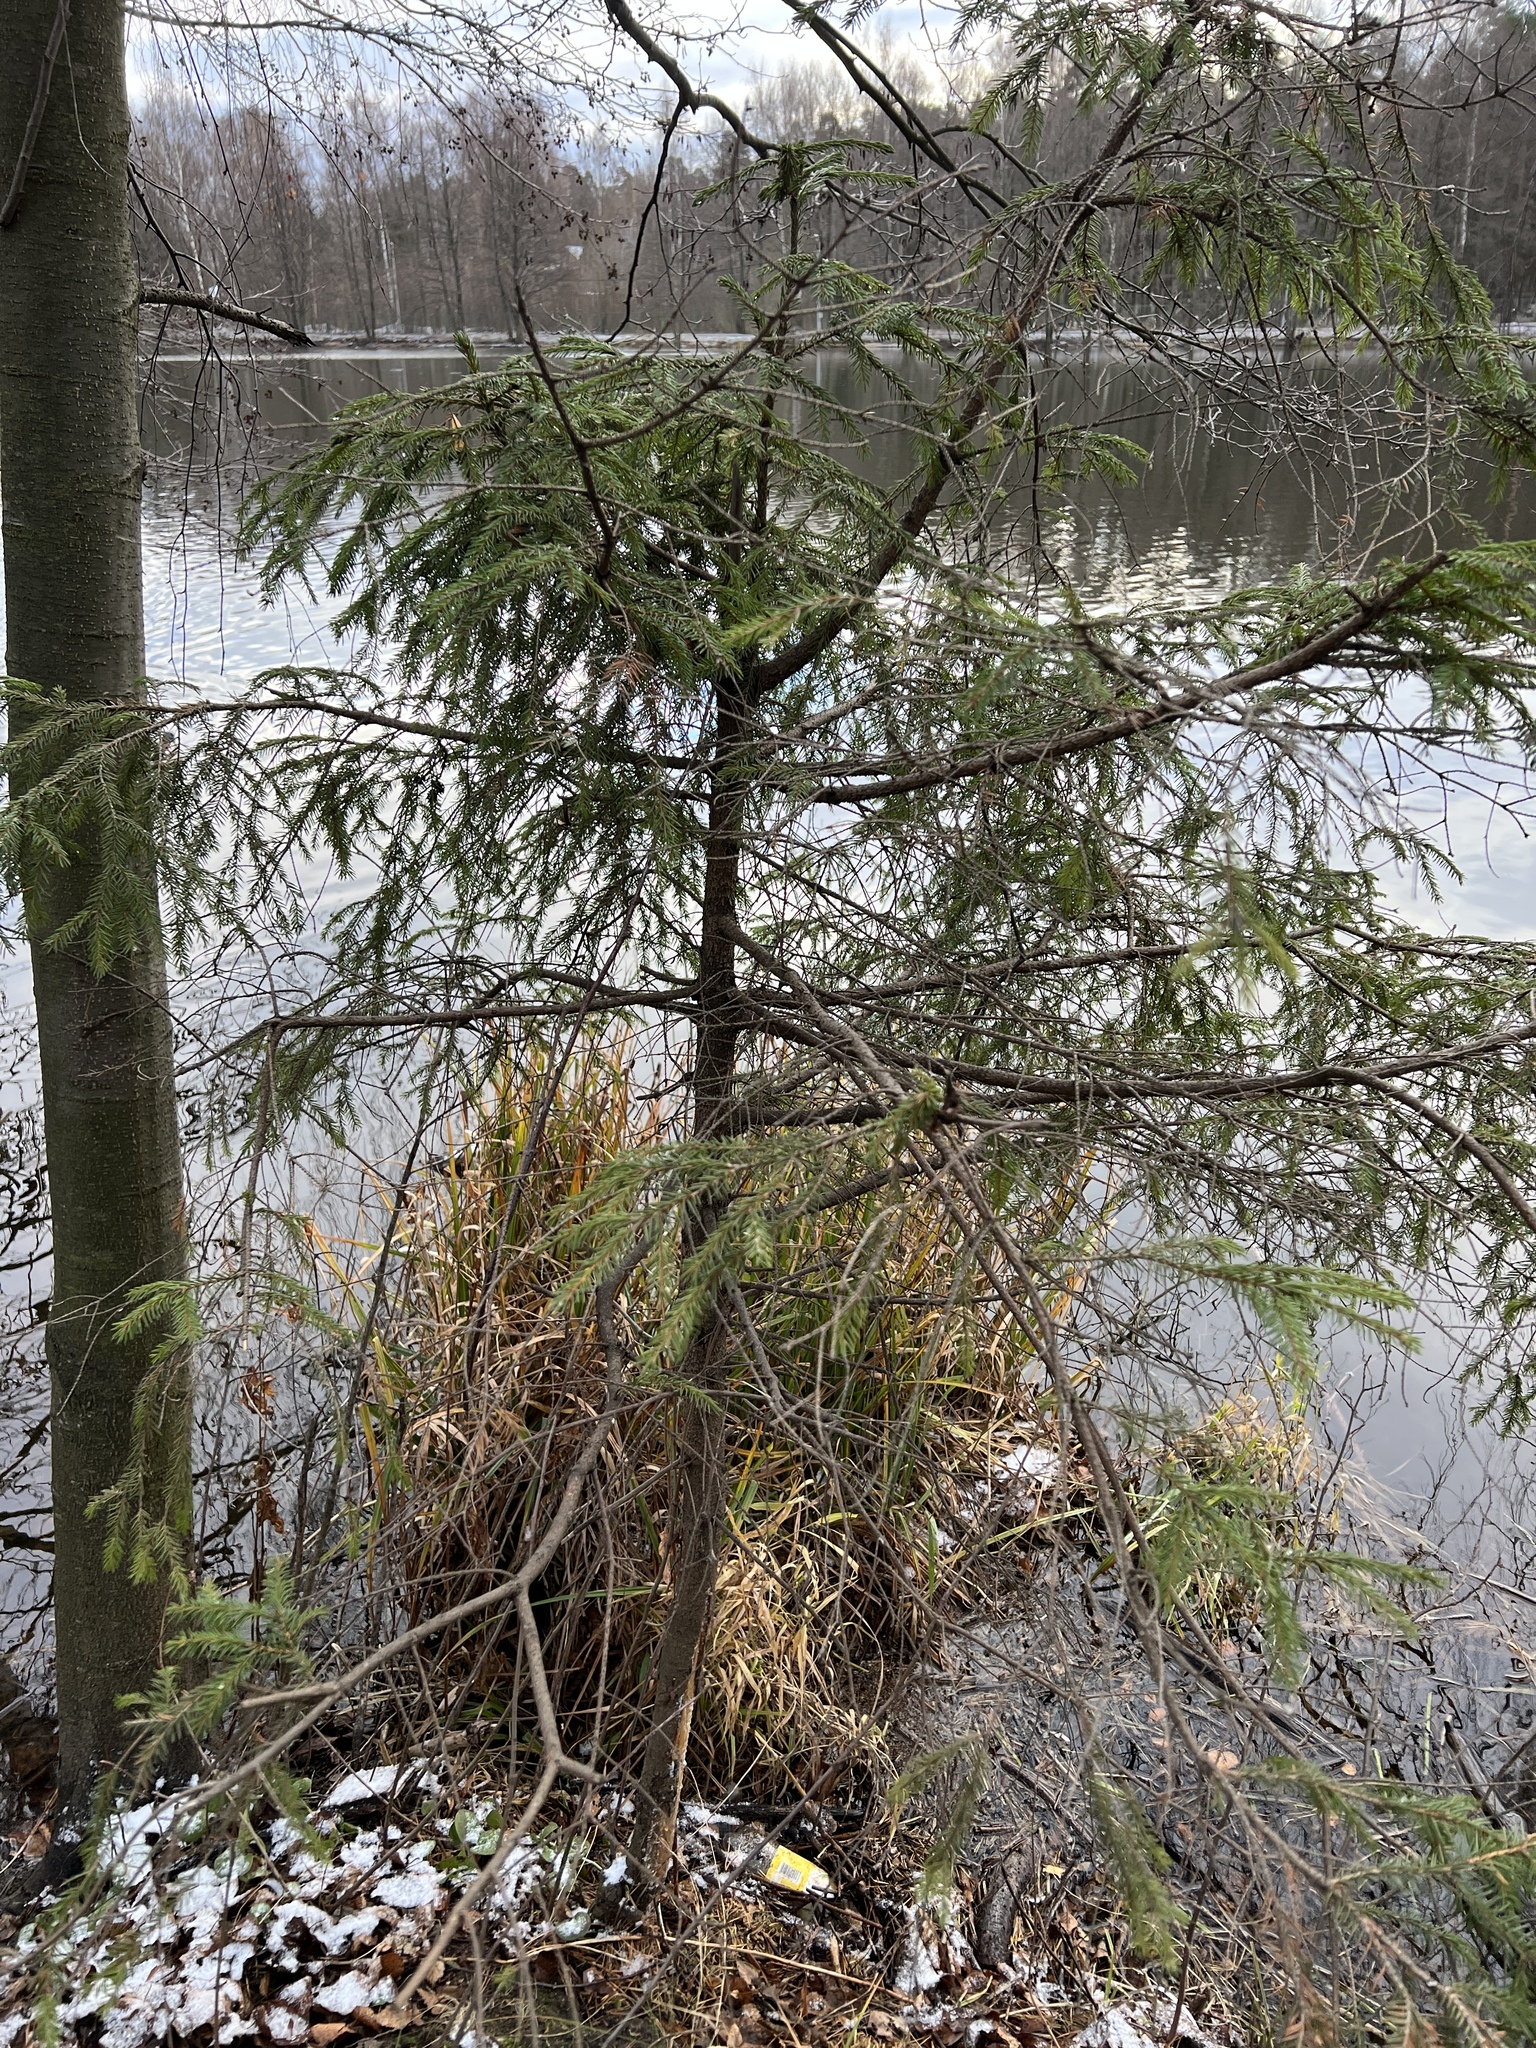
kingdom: Plantae
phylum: Tracheophyta
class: Pinopsida
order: Pinales
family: Pinaceae
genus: Picea
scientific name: Picea abies
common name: Norway spruce
